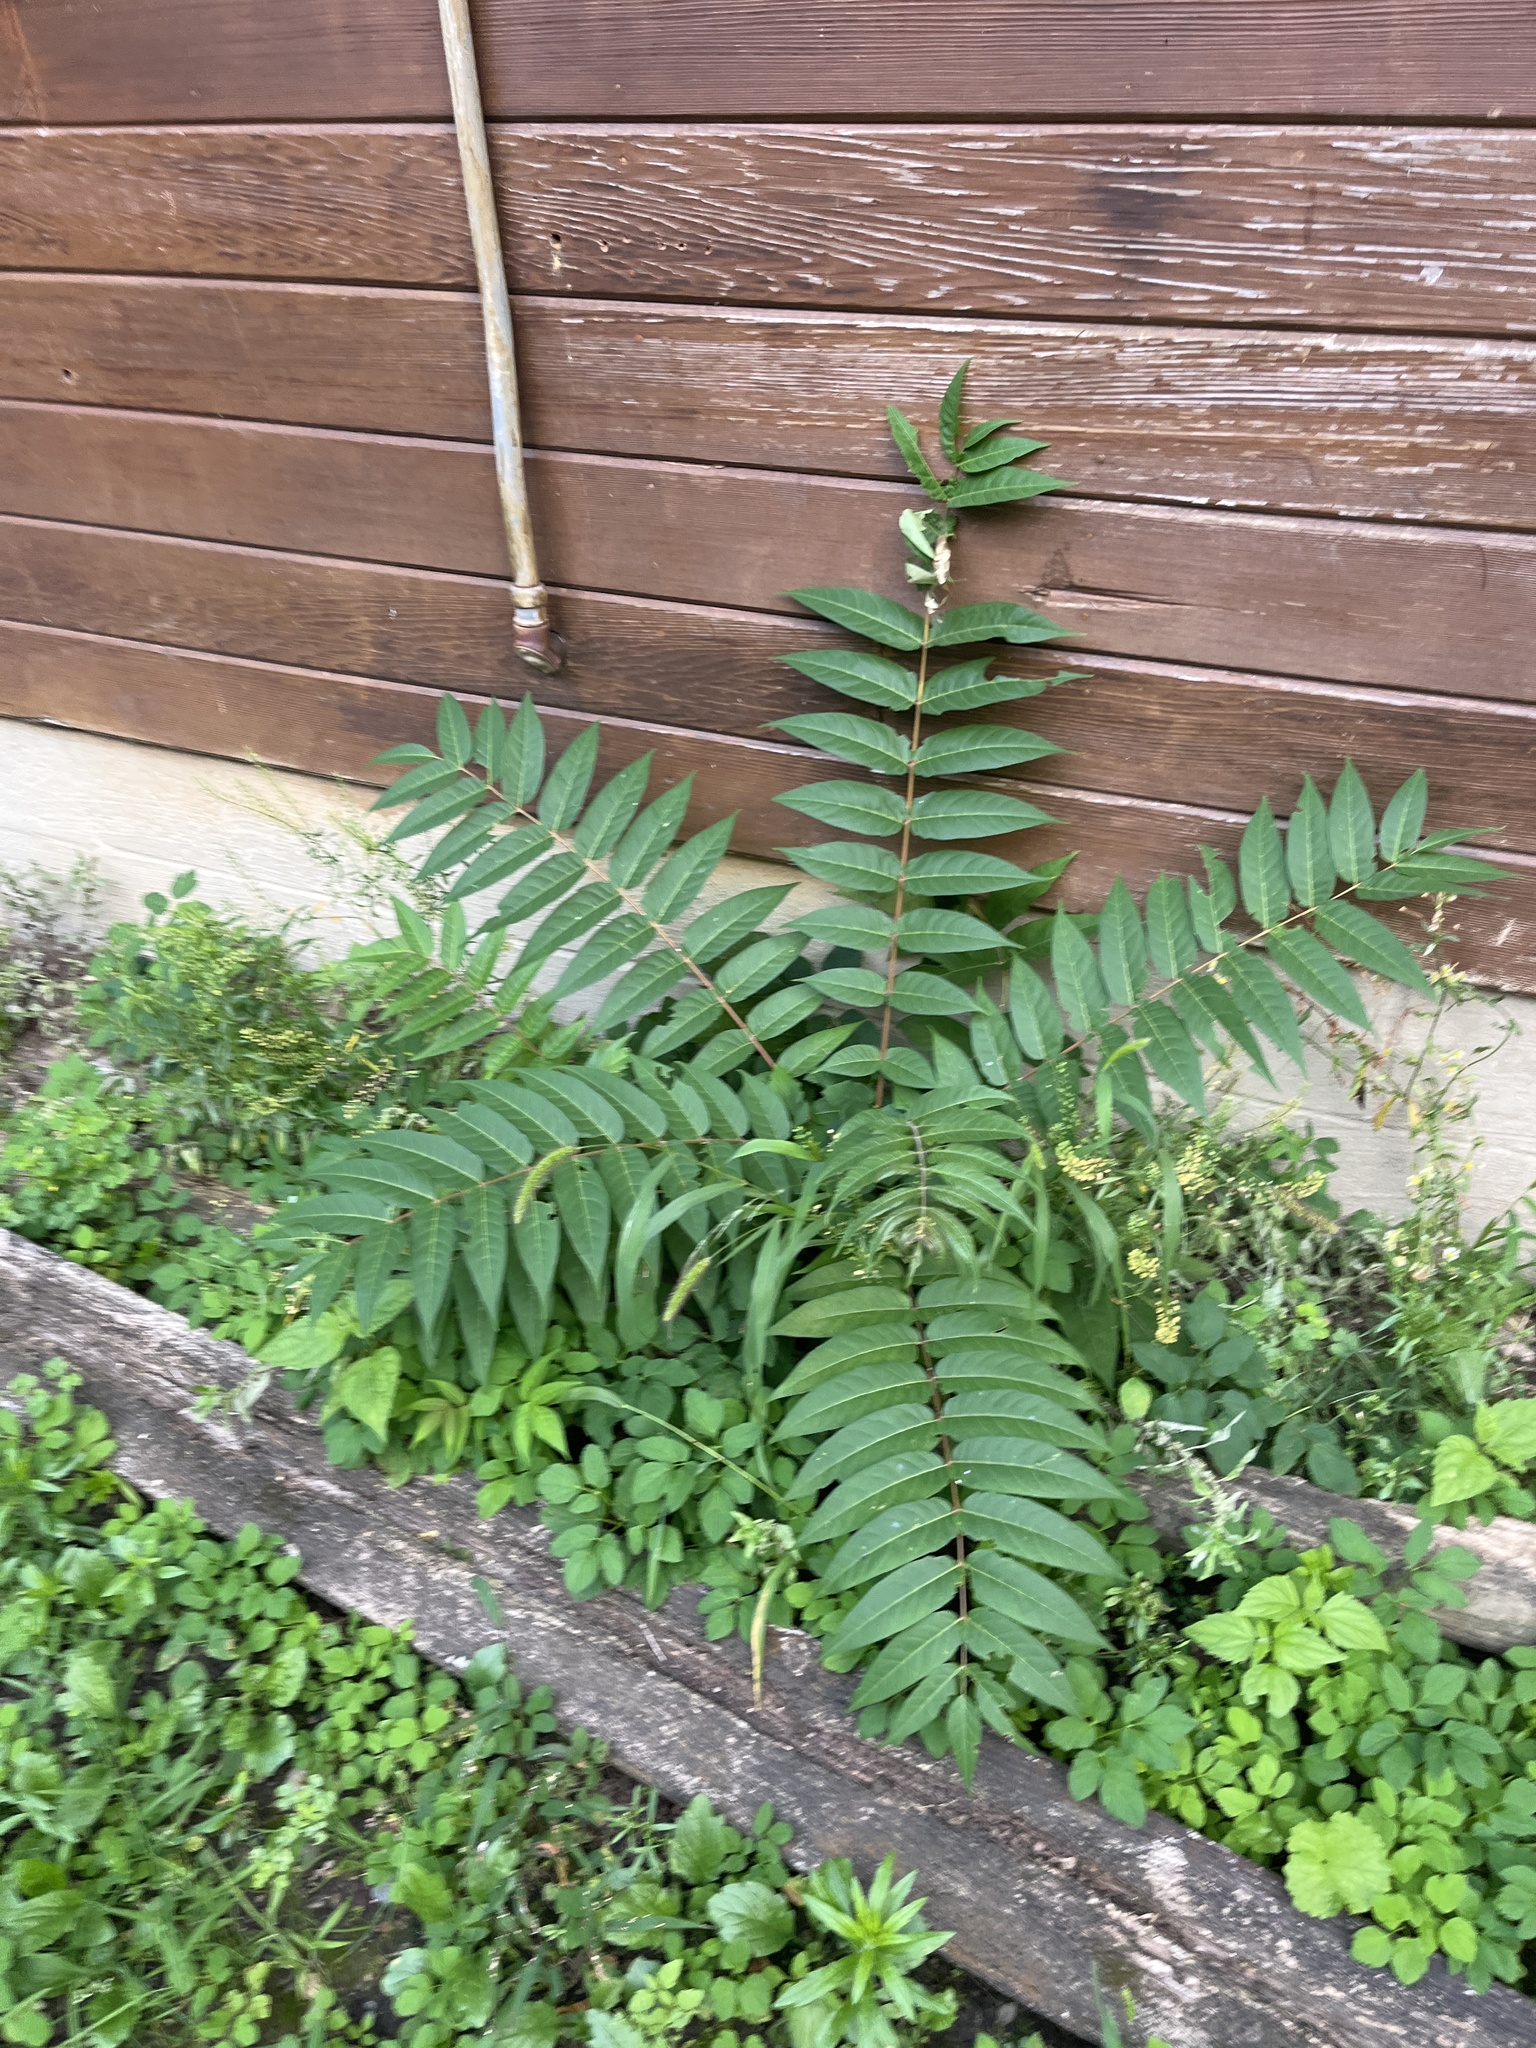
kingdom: Plantae
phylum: Tracheophyta
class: Magnoliopsida
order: Sapindales
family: Simaroubaceae
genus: Ailanthus
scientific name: Ailanthus altissima
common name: Tree-of-heaven
